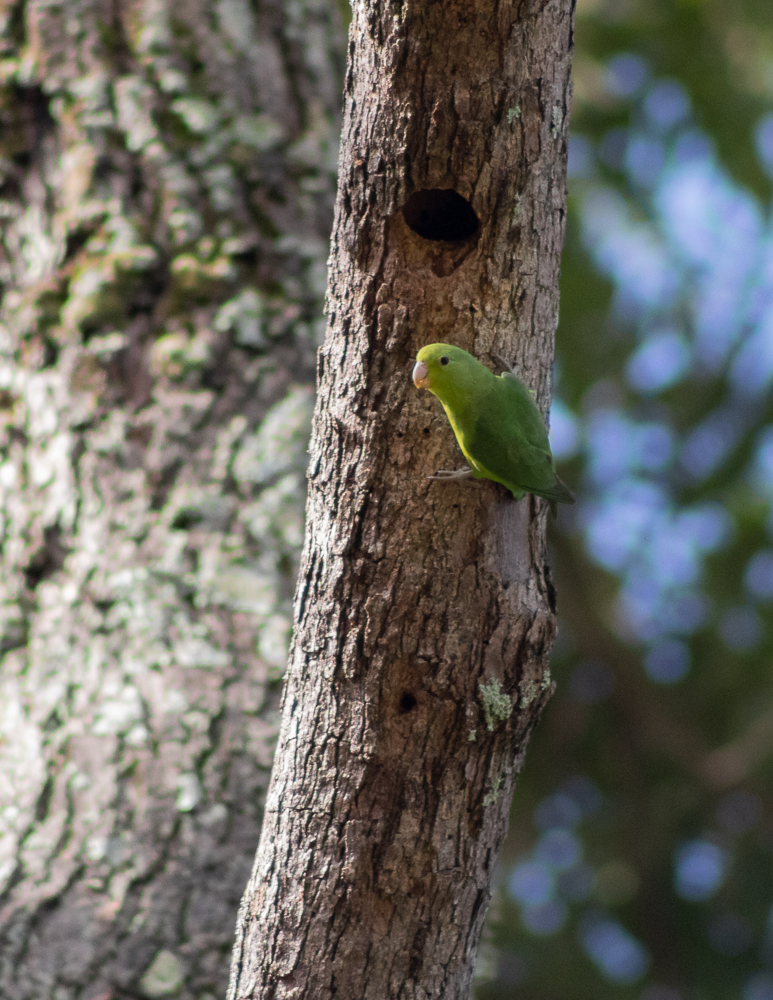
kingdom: Animalia
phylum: Chordata
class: Aves
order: Psittaciformes
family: Psittacidae
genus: Forpus
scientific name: Forpus xanthopterygius
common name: Blue-winged parrotlet
